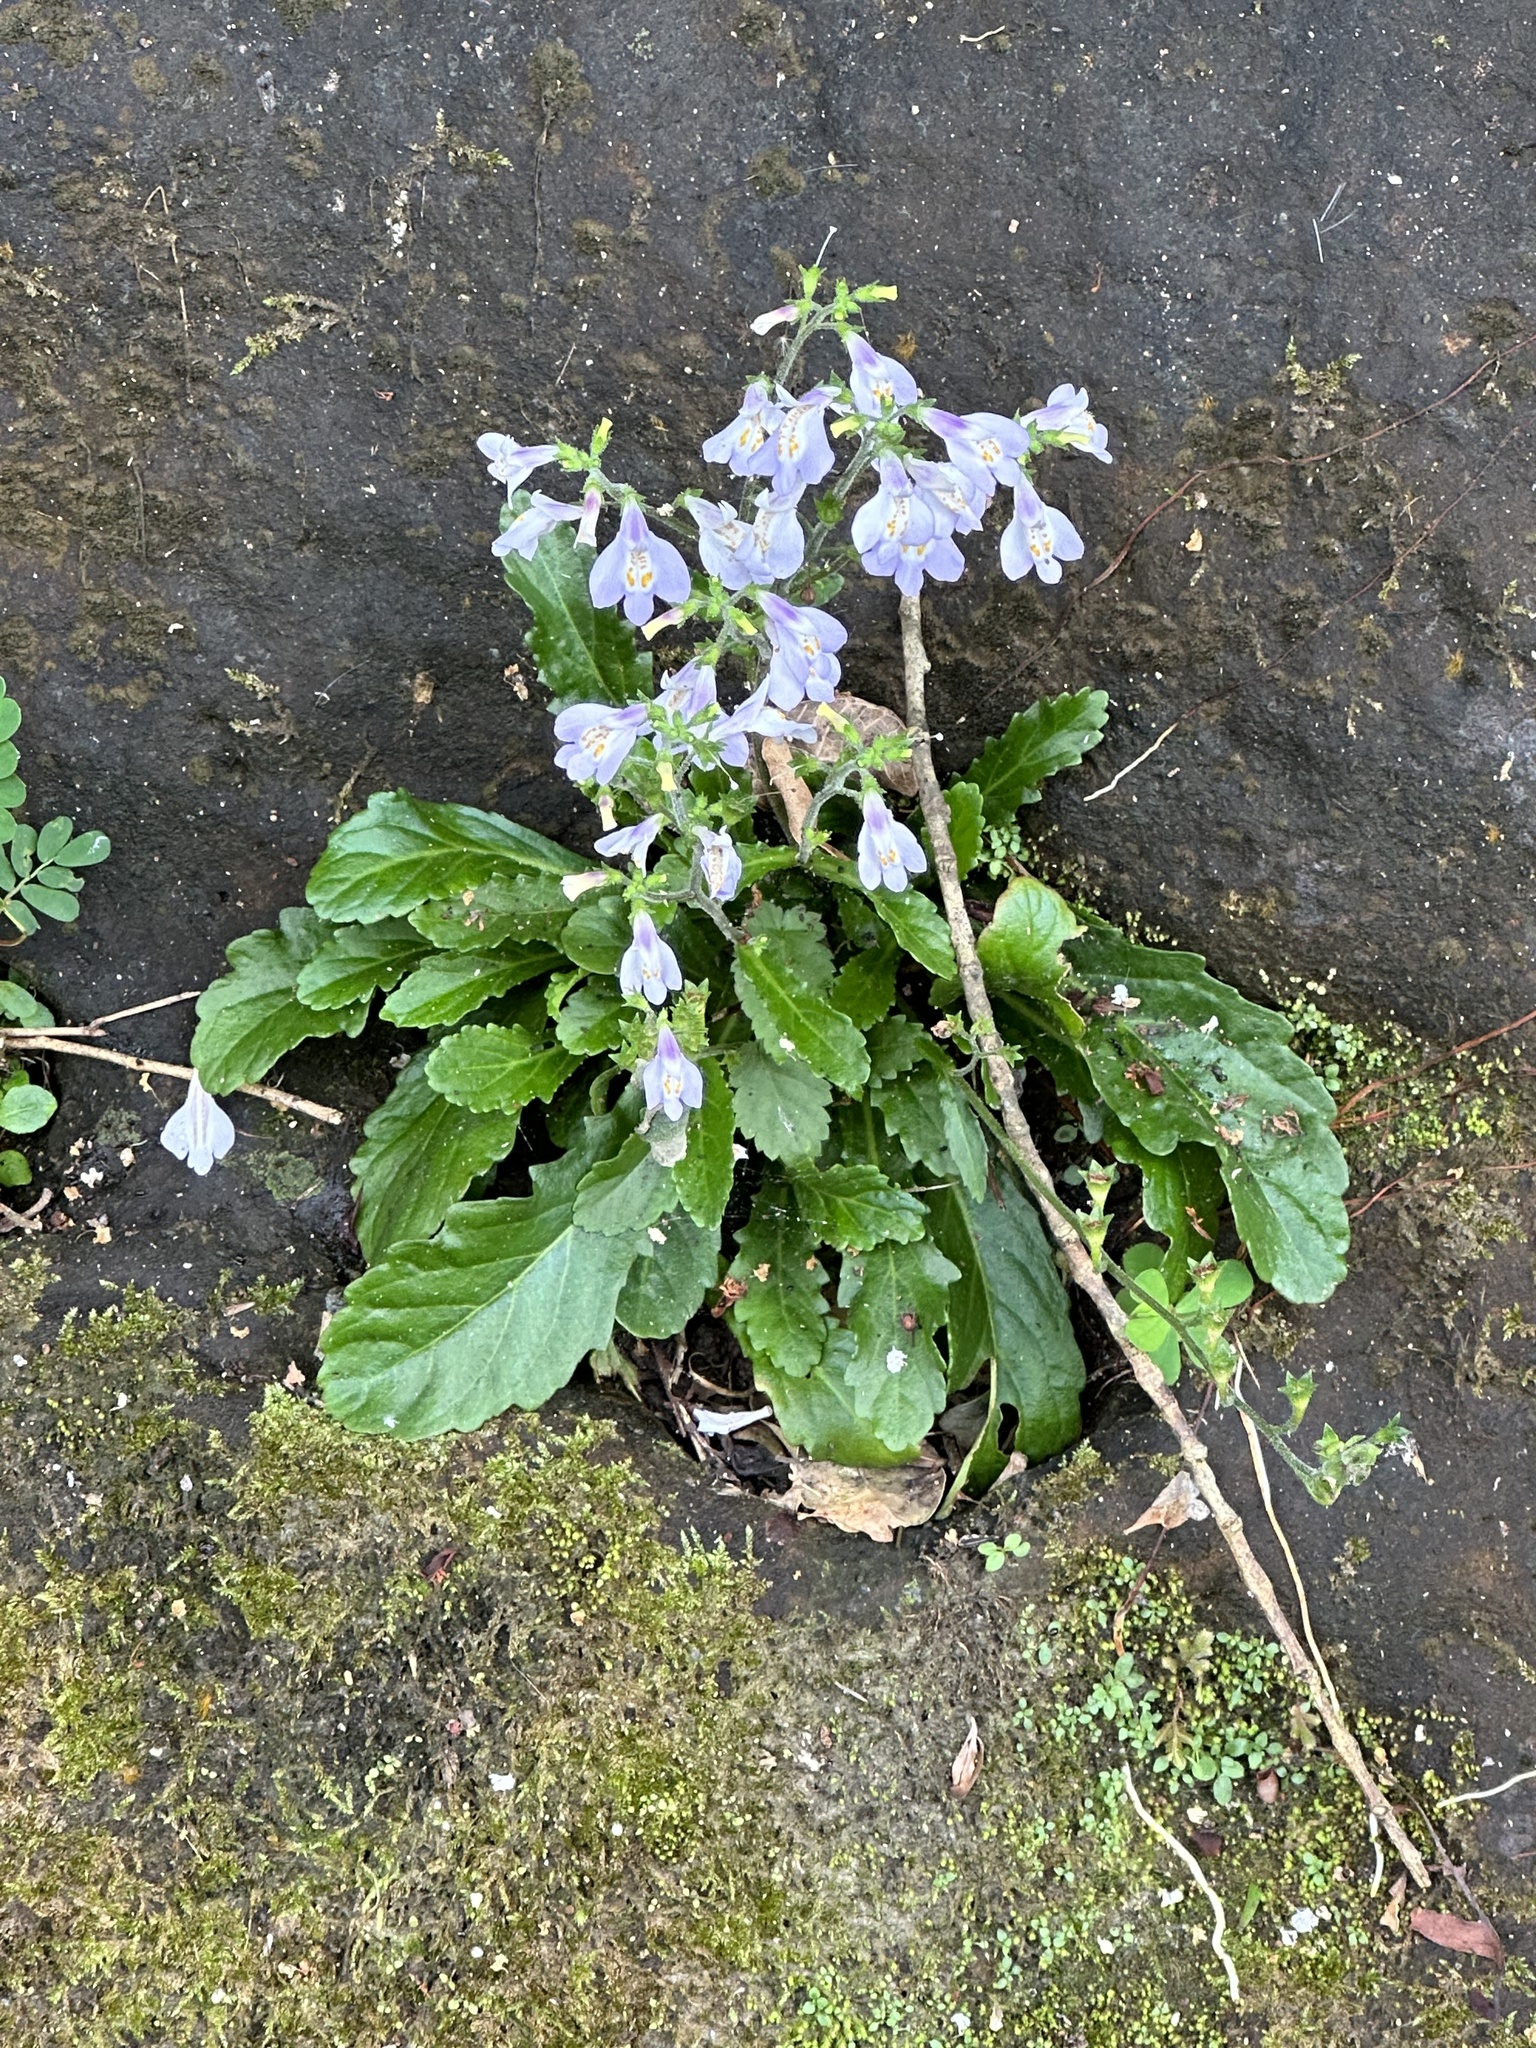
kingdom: Plantae
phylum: Tracheophyta
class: Magnoliopsida
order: Lamiales
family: Mazaceae
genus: Mazus
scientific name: Mazus fauriei
